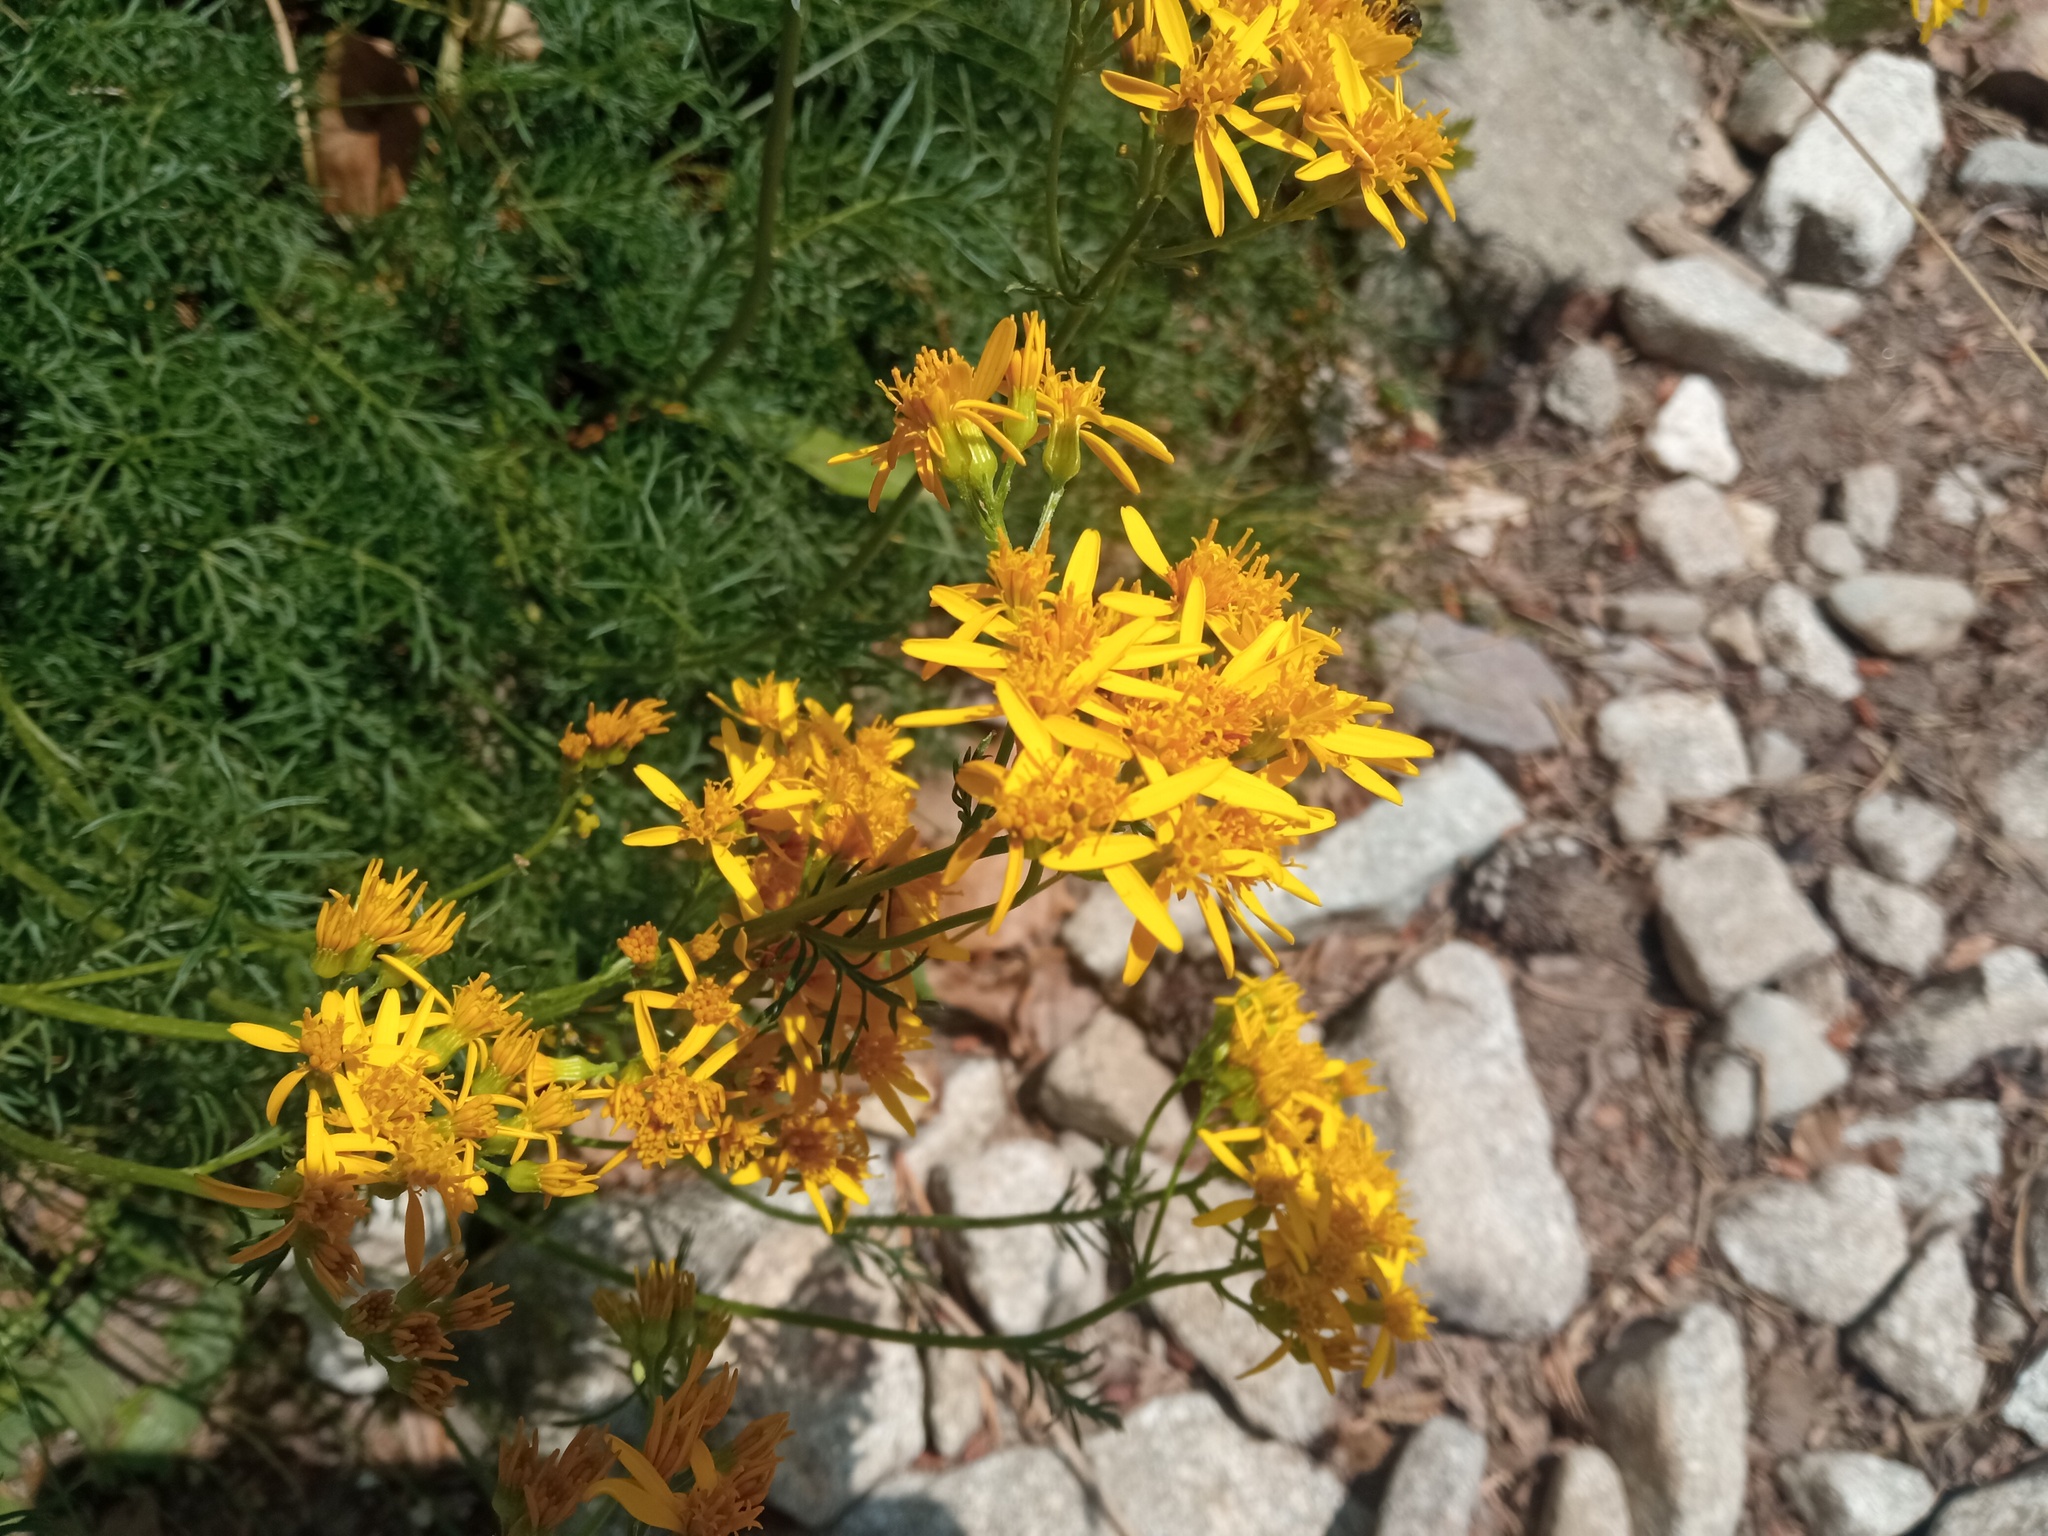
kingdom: Plantae
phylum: Tracheophyta
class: Magnoliopsida
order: Asterales
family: Asteraceae
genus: Jacobaea
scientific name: Jacobaea adonidifolia
